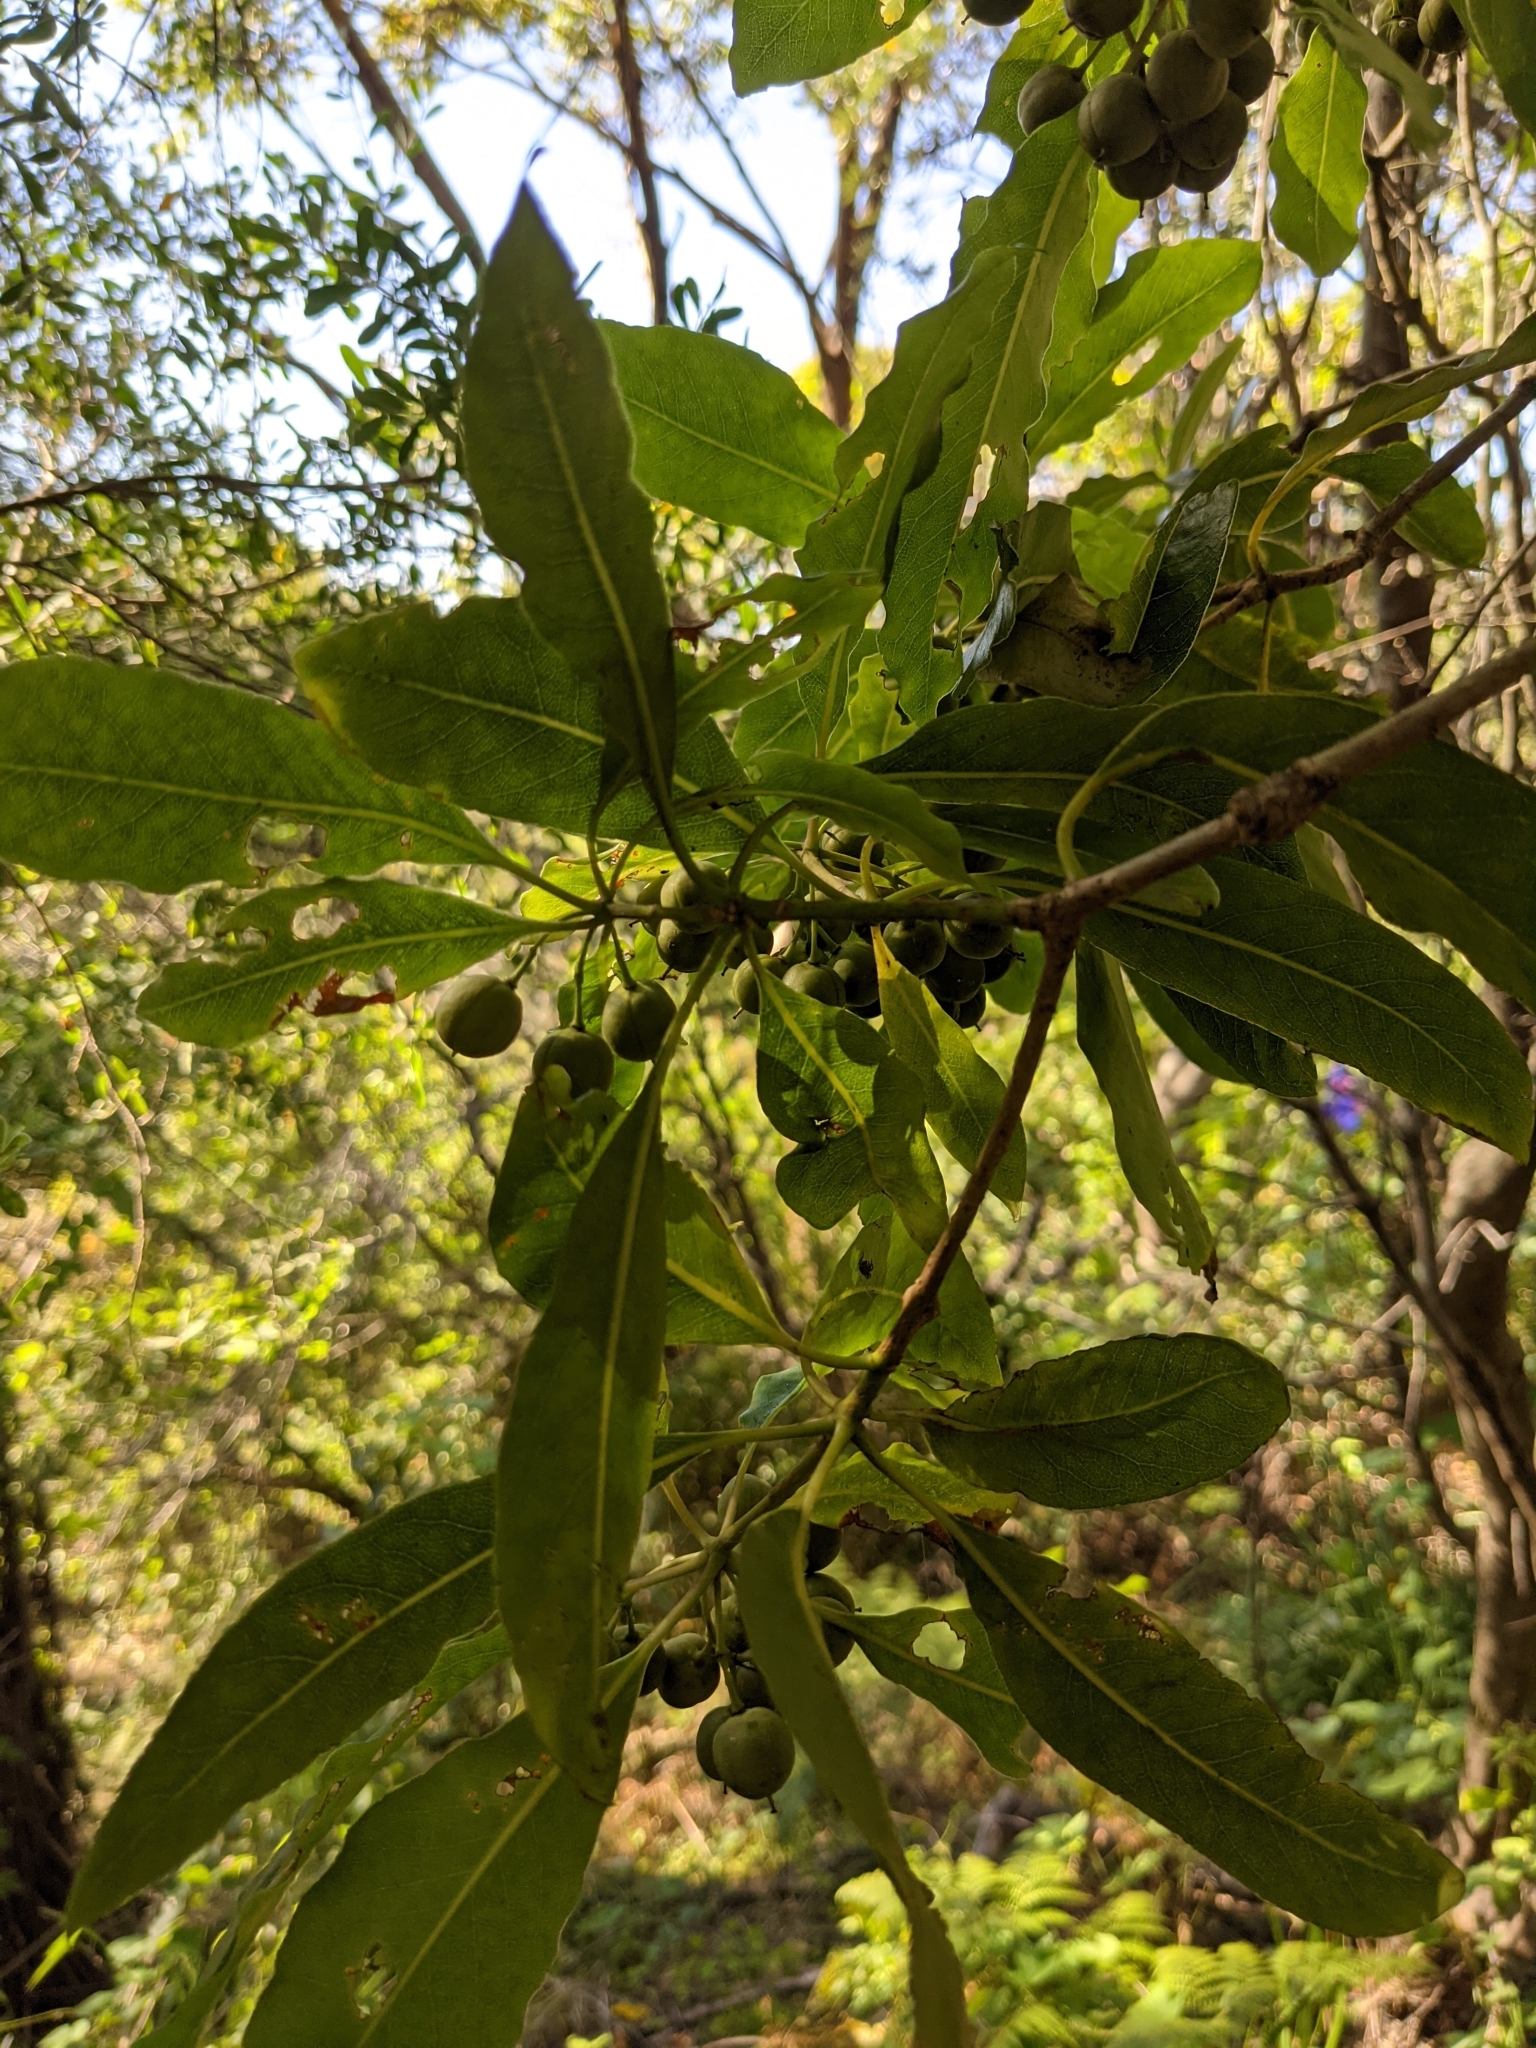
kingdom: Plantae
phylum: Tracheophyta
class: Magnoliopsida
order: Apiales
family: Pittosporaceae
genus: Pittosporum
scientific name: Pittosporum undulatum
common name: Australian cheesewood
